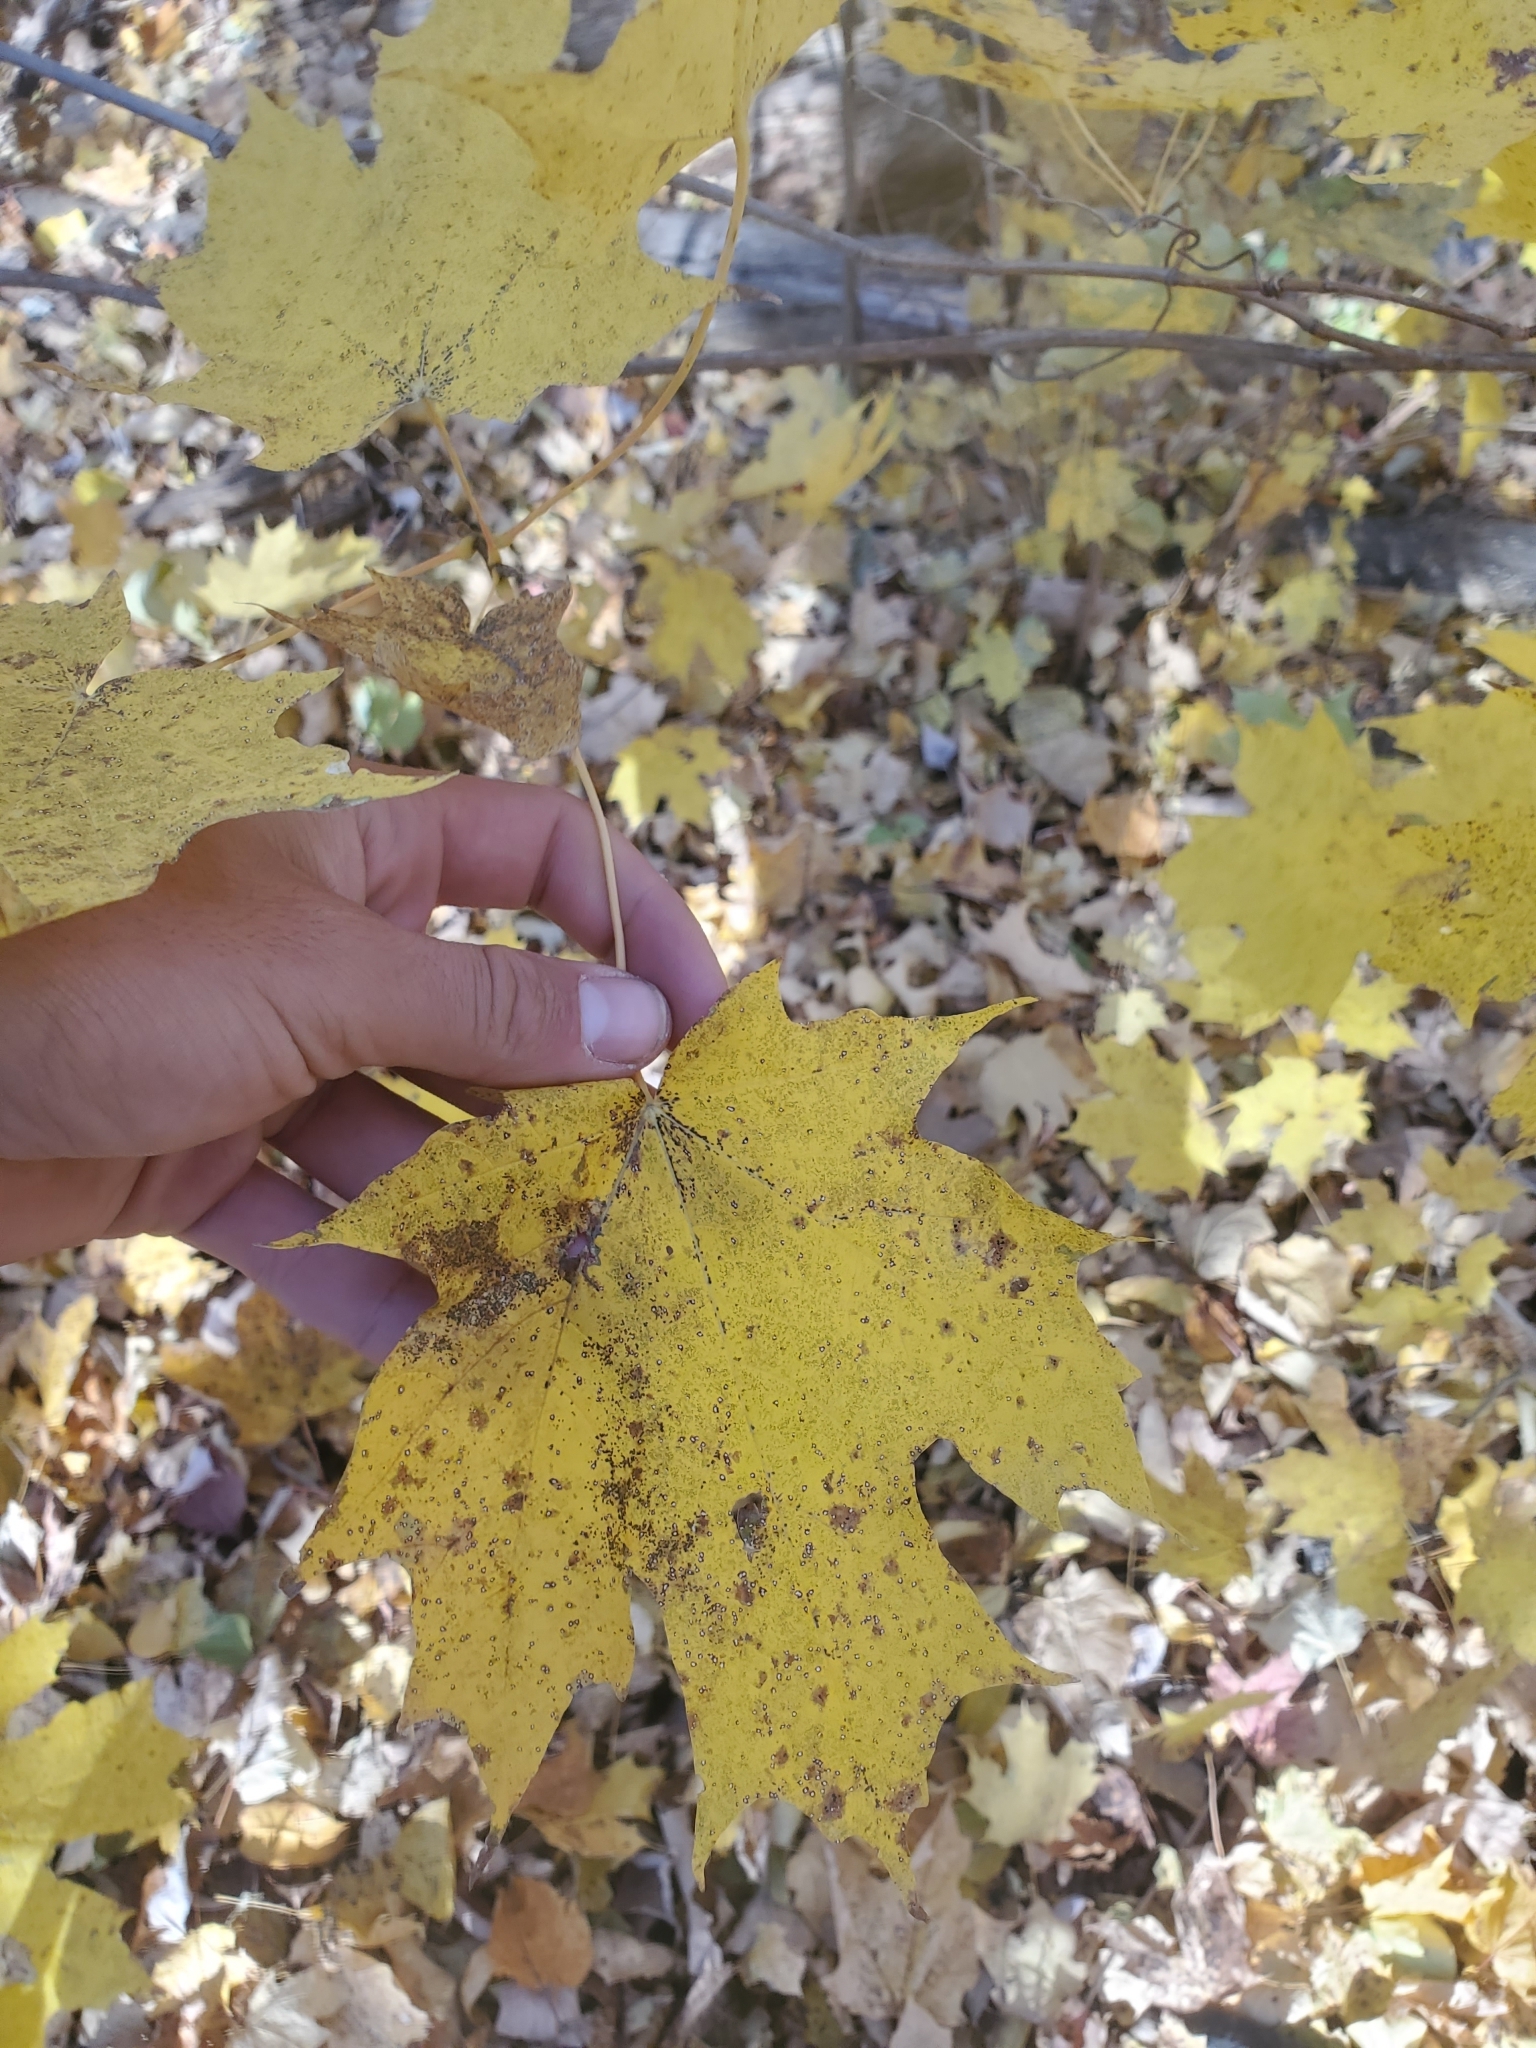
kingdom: Plantae
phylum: Tracheophyta
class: Magnoliopsida
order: Sapindales
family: Sapindaceae
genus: Acer
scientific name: Acer saccharum
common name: Sugar maple
